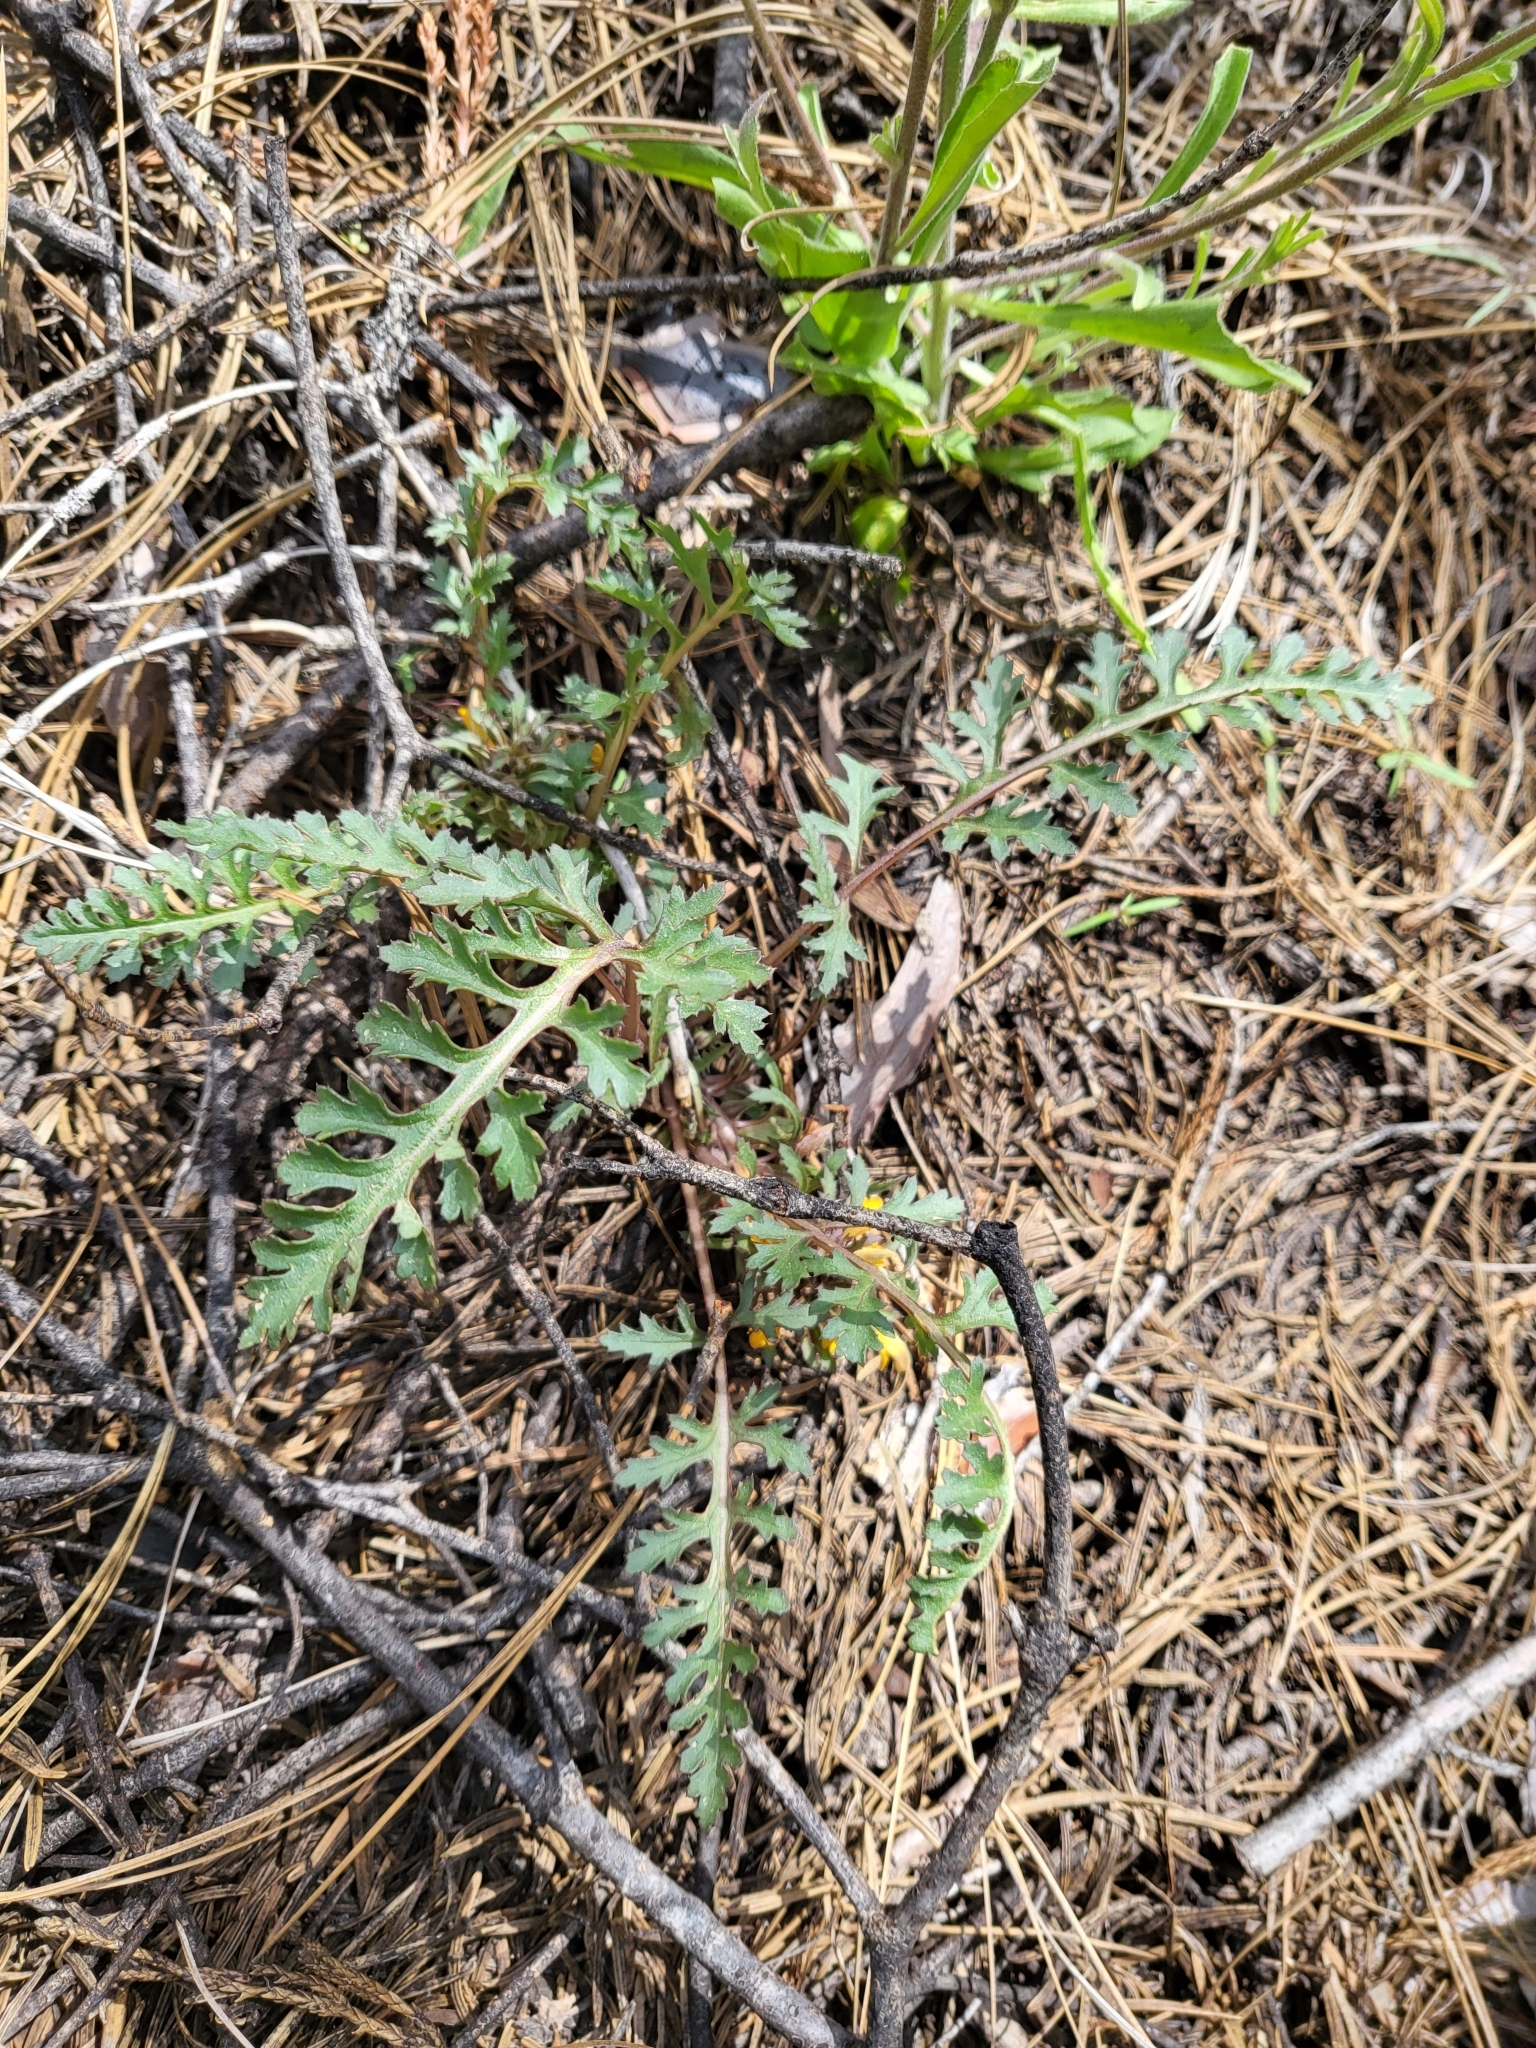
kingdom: Plantae
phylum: Tracheophyta
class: Magnoliopsida
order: Lamiales
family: Orobanchaceae
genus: Pedicularis
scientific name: Pedicularis semibarbata
